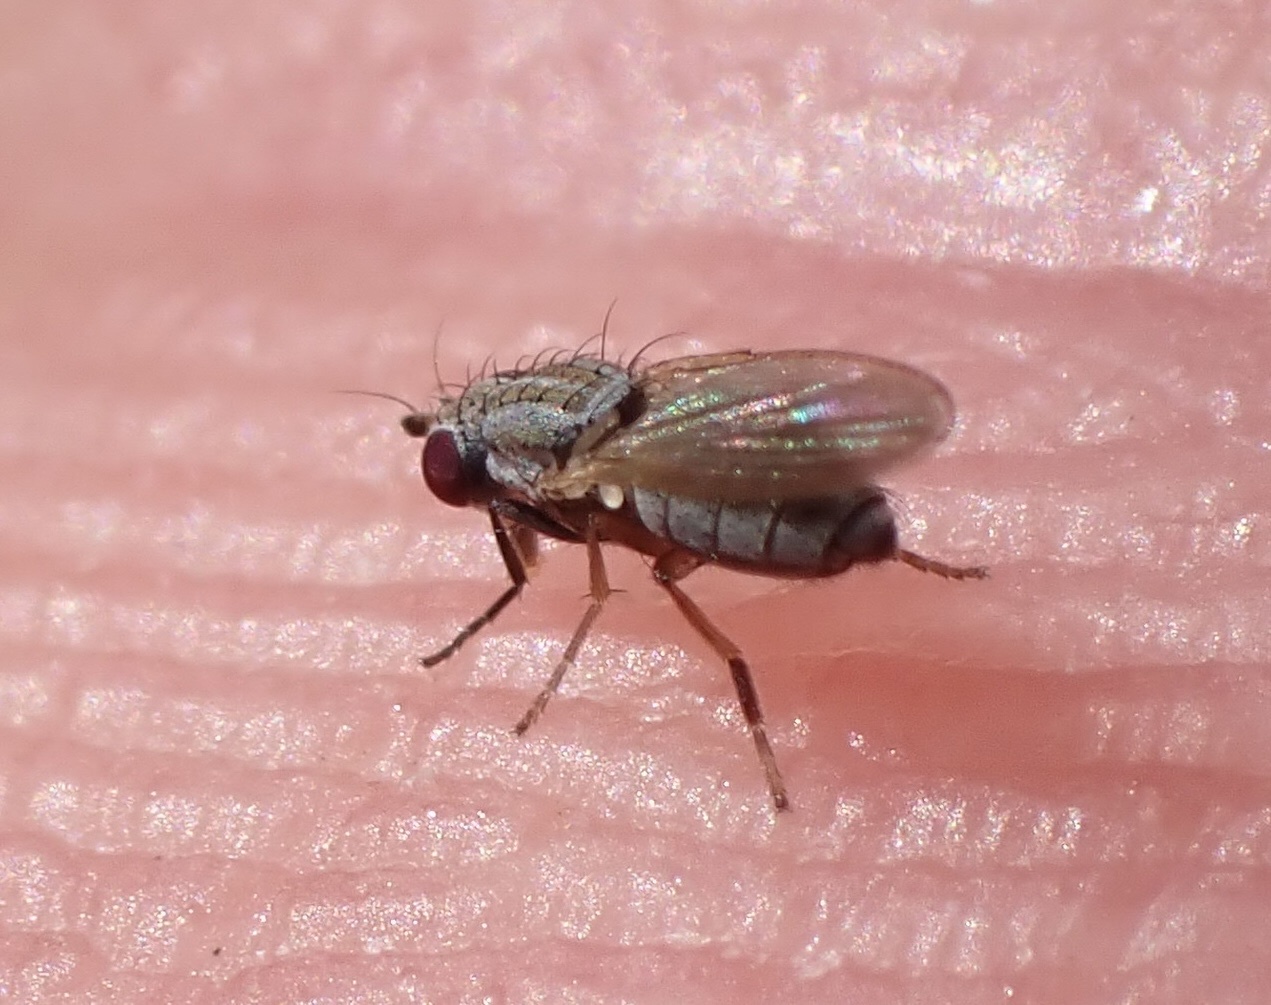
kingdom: Animalia
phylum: Arthropoda
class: Insecta
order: Diptera
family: Heleomyzidae
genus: Trixoscelis
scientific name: Trixoscelis pedestris
